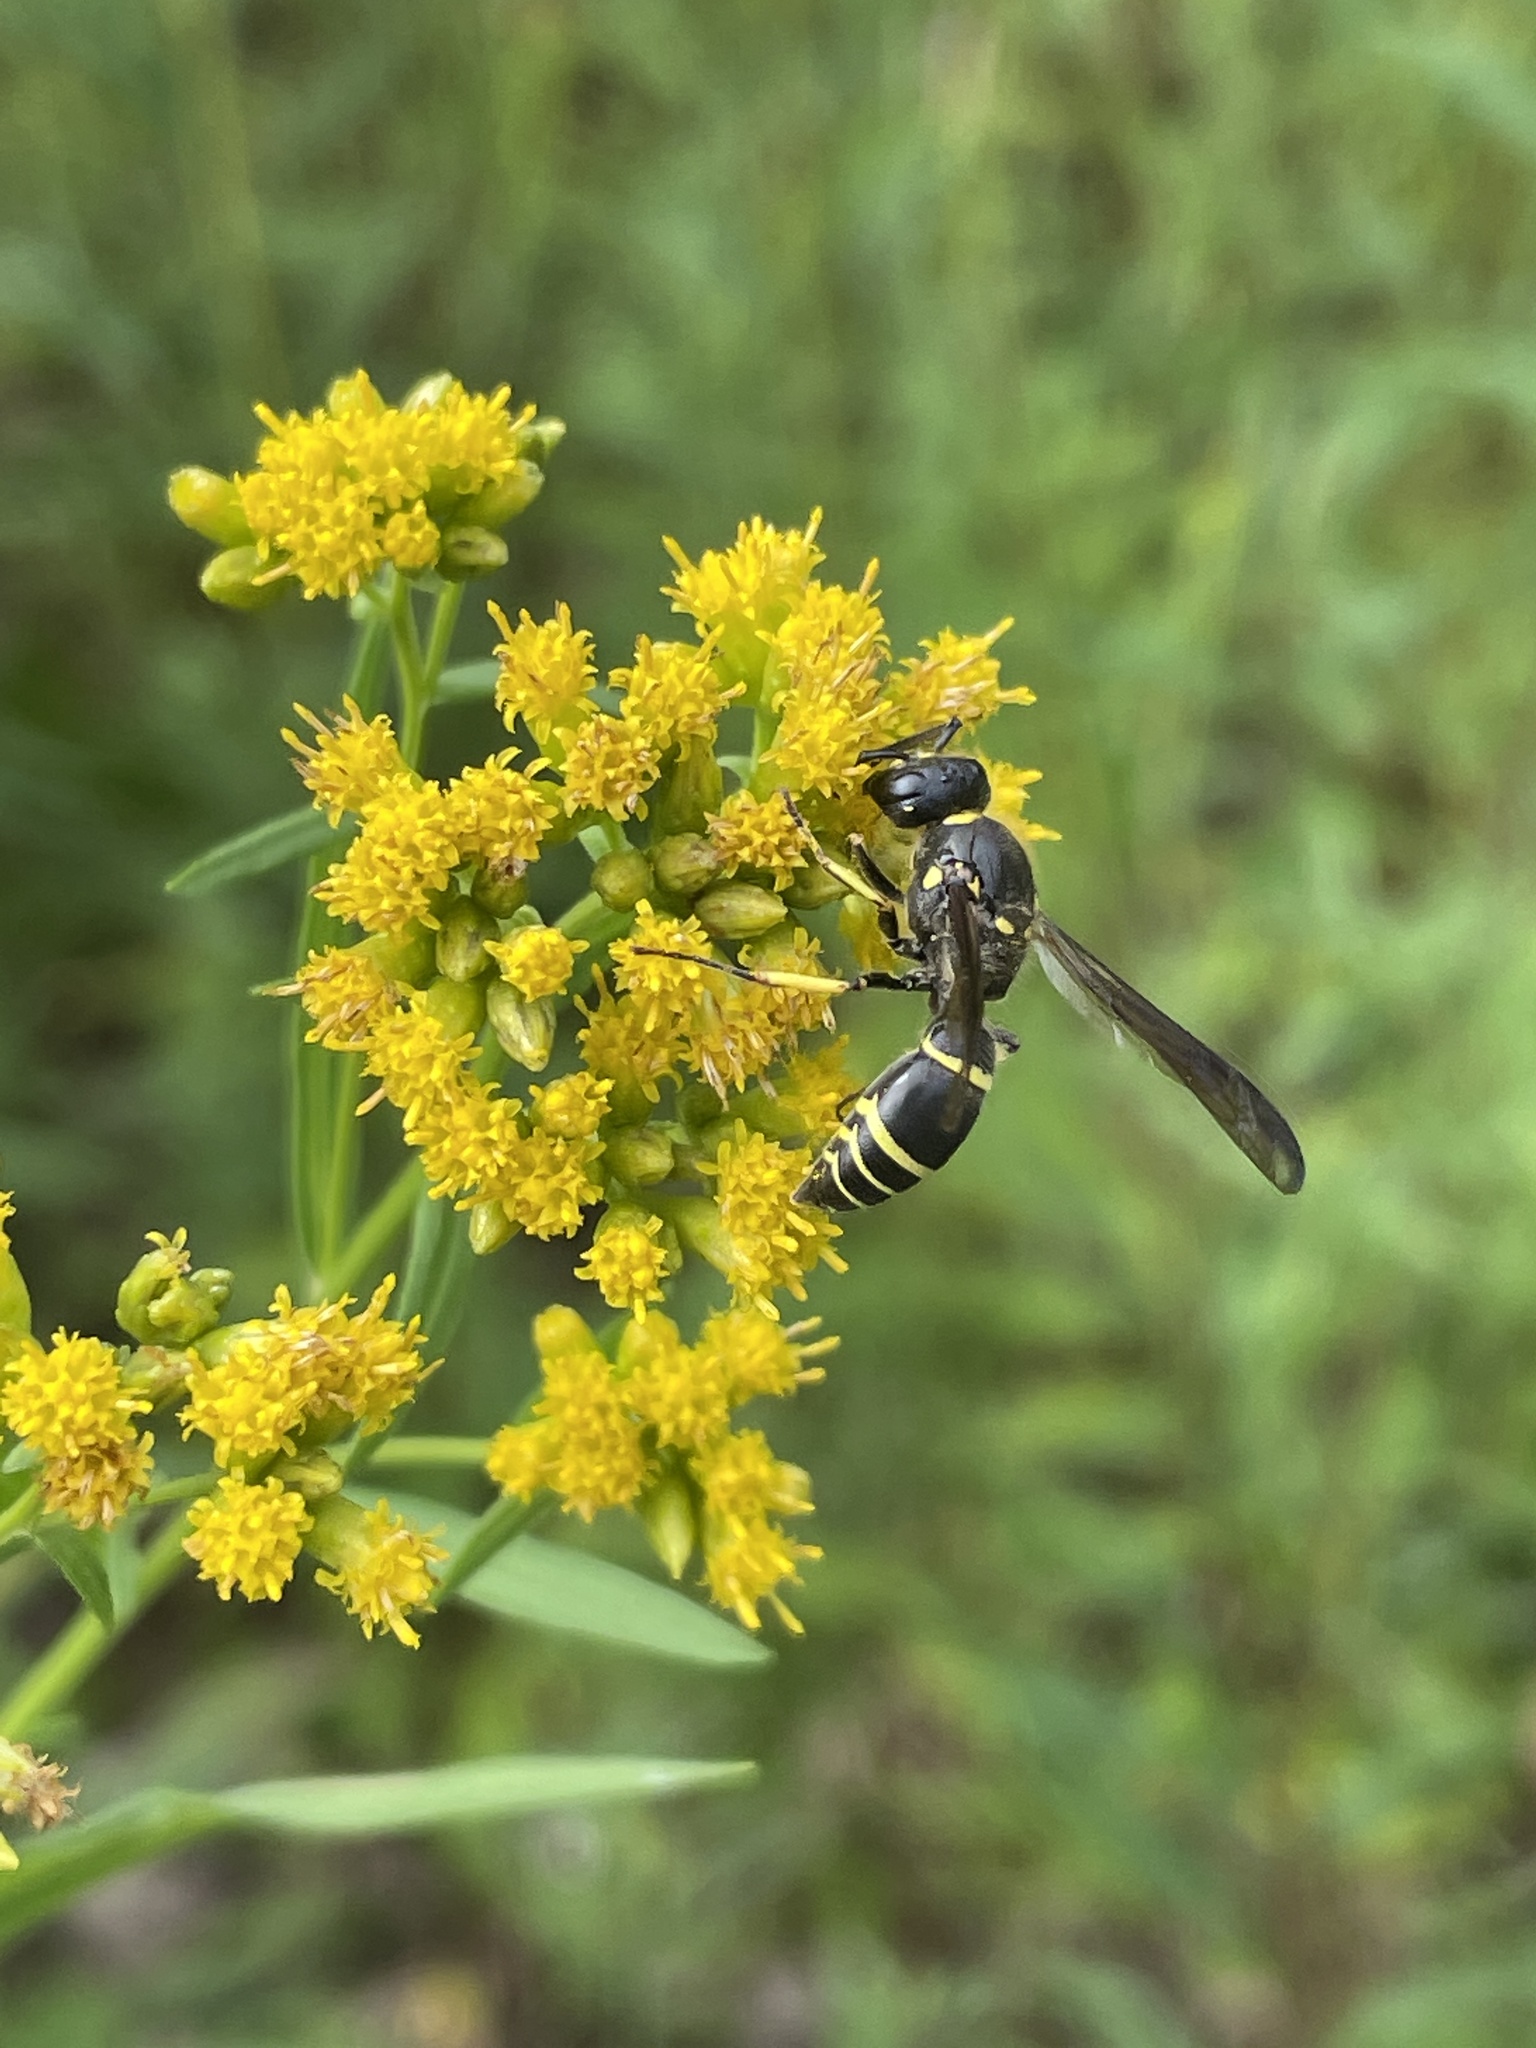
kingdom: Animalia
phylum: Arthropoda
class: Insecta
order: Hymenoptera
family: Vespidae
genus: Ancistrocerus
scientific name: Ancistrocerus
